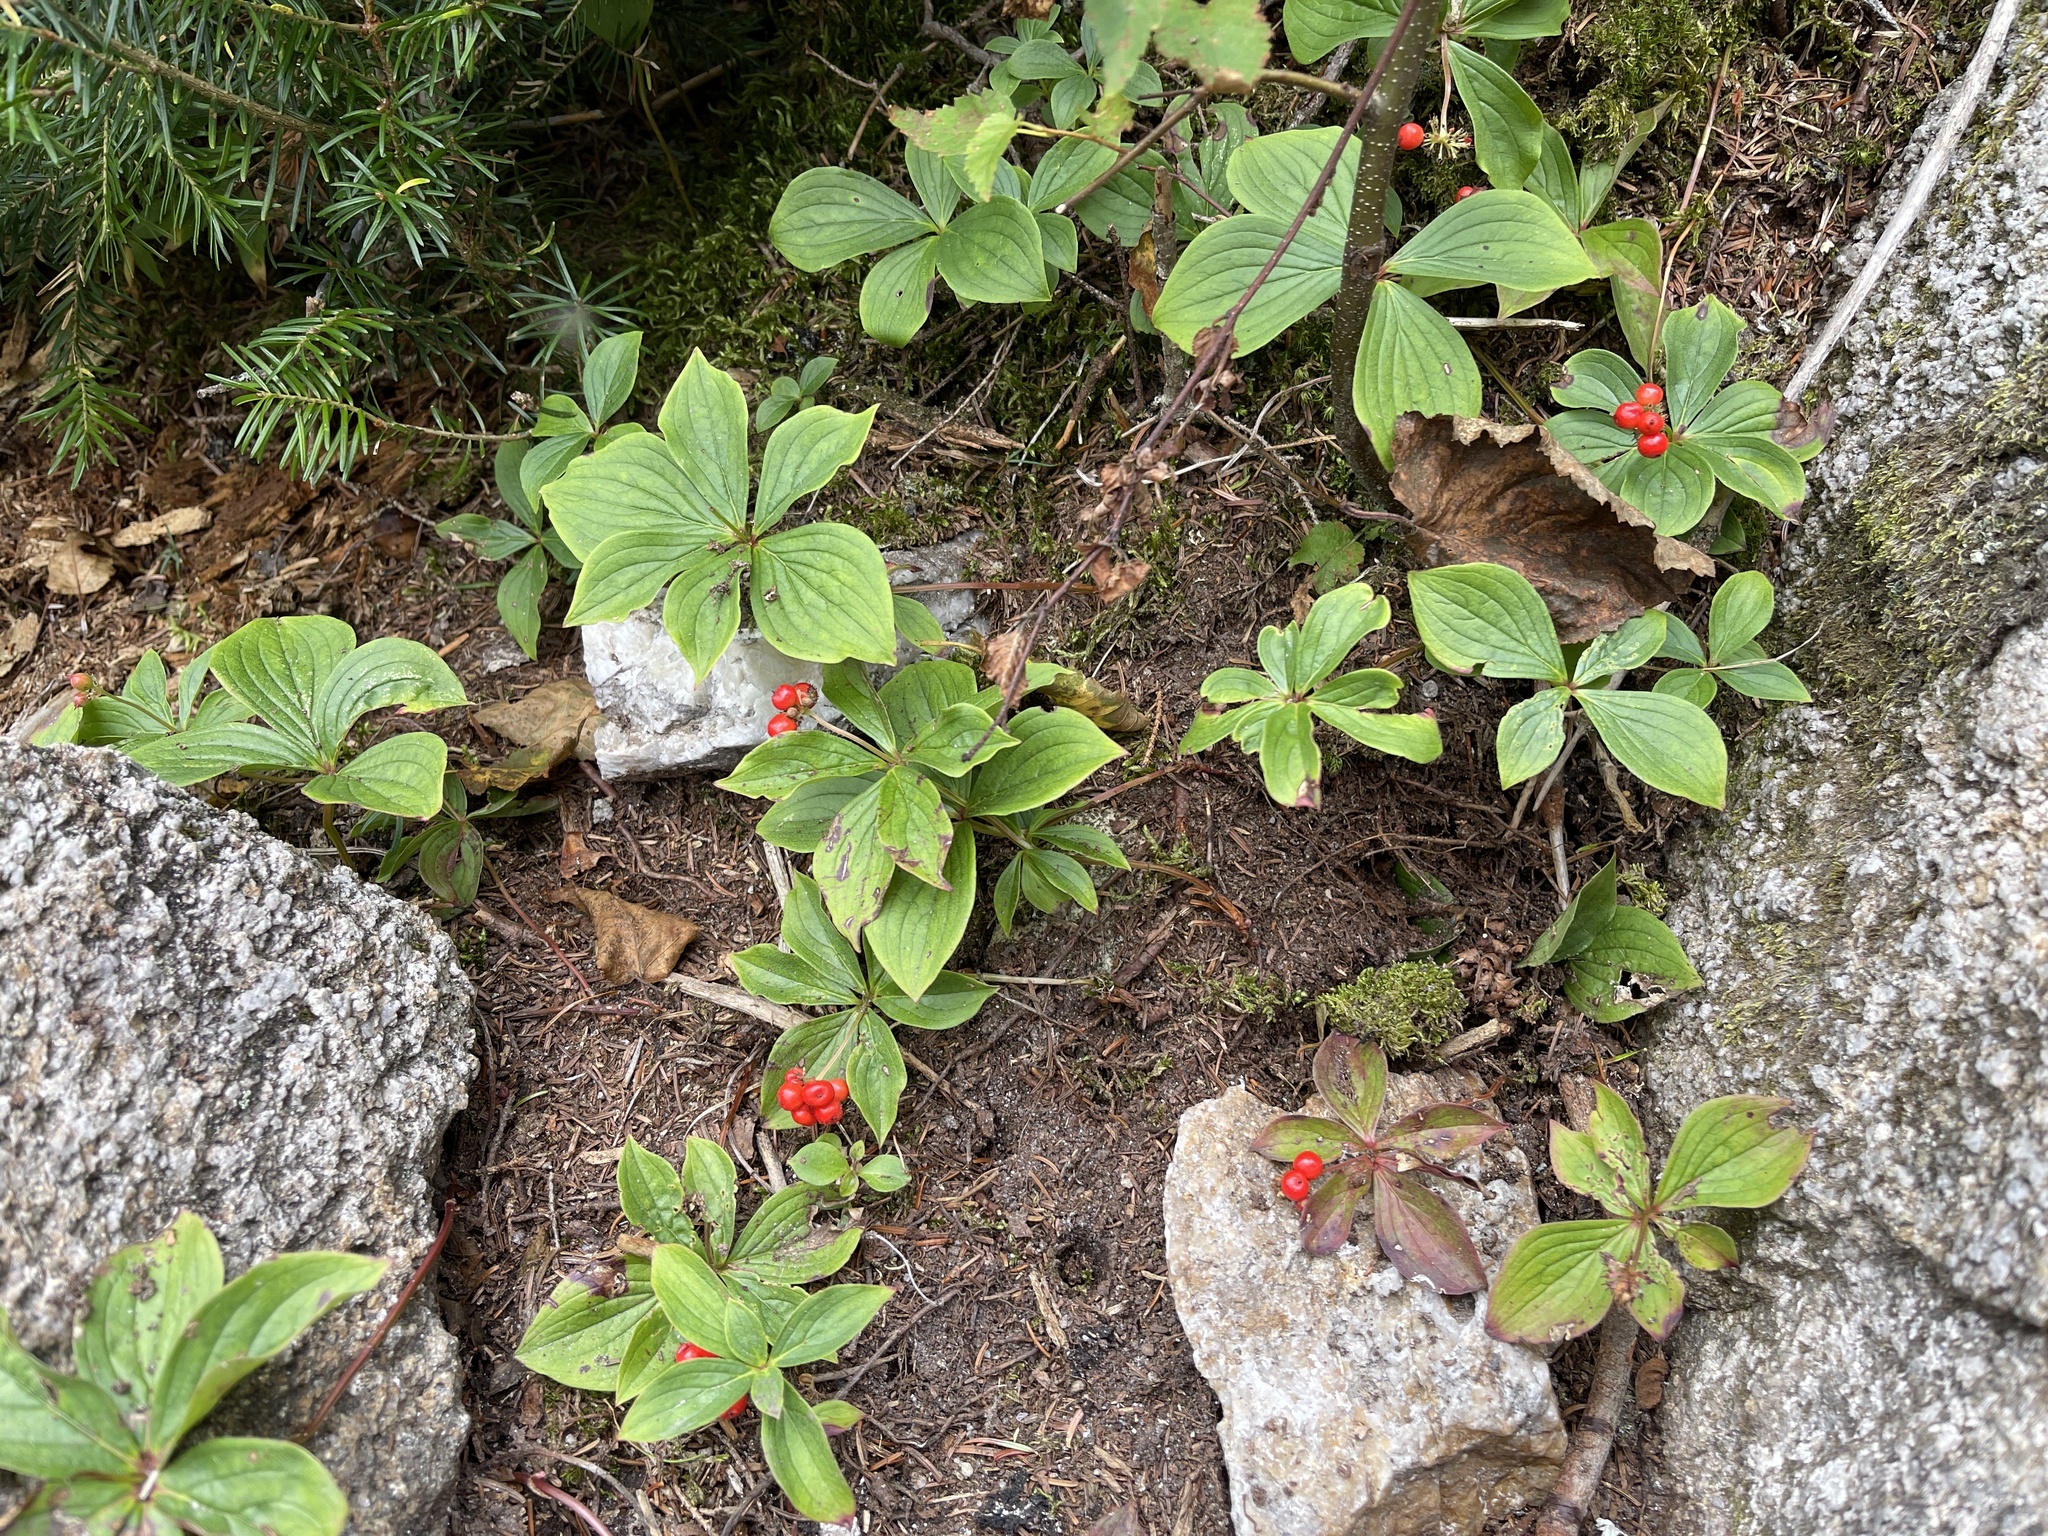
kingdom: Plantae
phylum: Tracheophyta
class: Magnoliopsida
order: Cornales
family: Cornaceae
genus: Cornus
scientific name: Cornus canadensis
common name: Creeping dogwood
